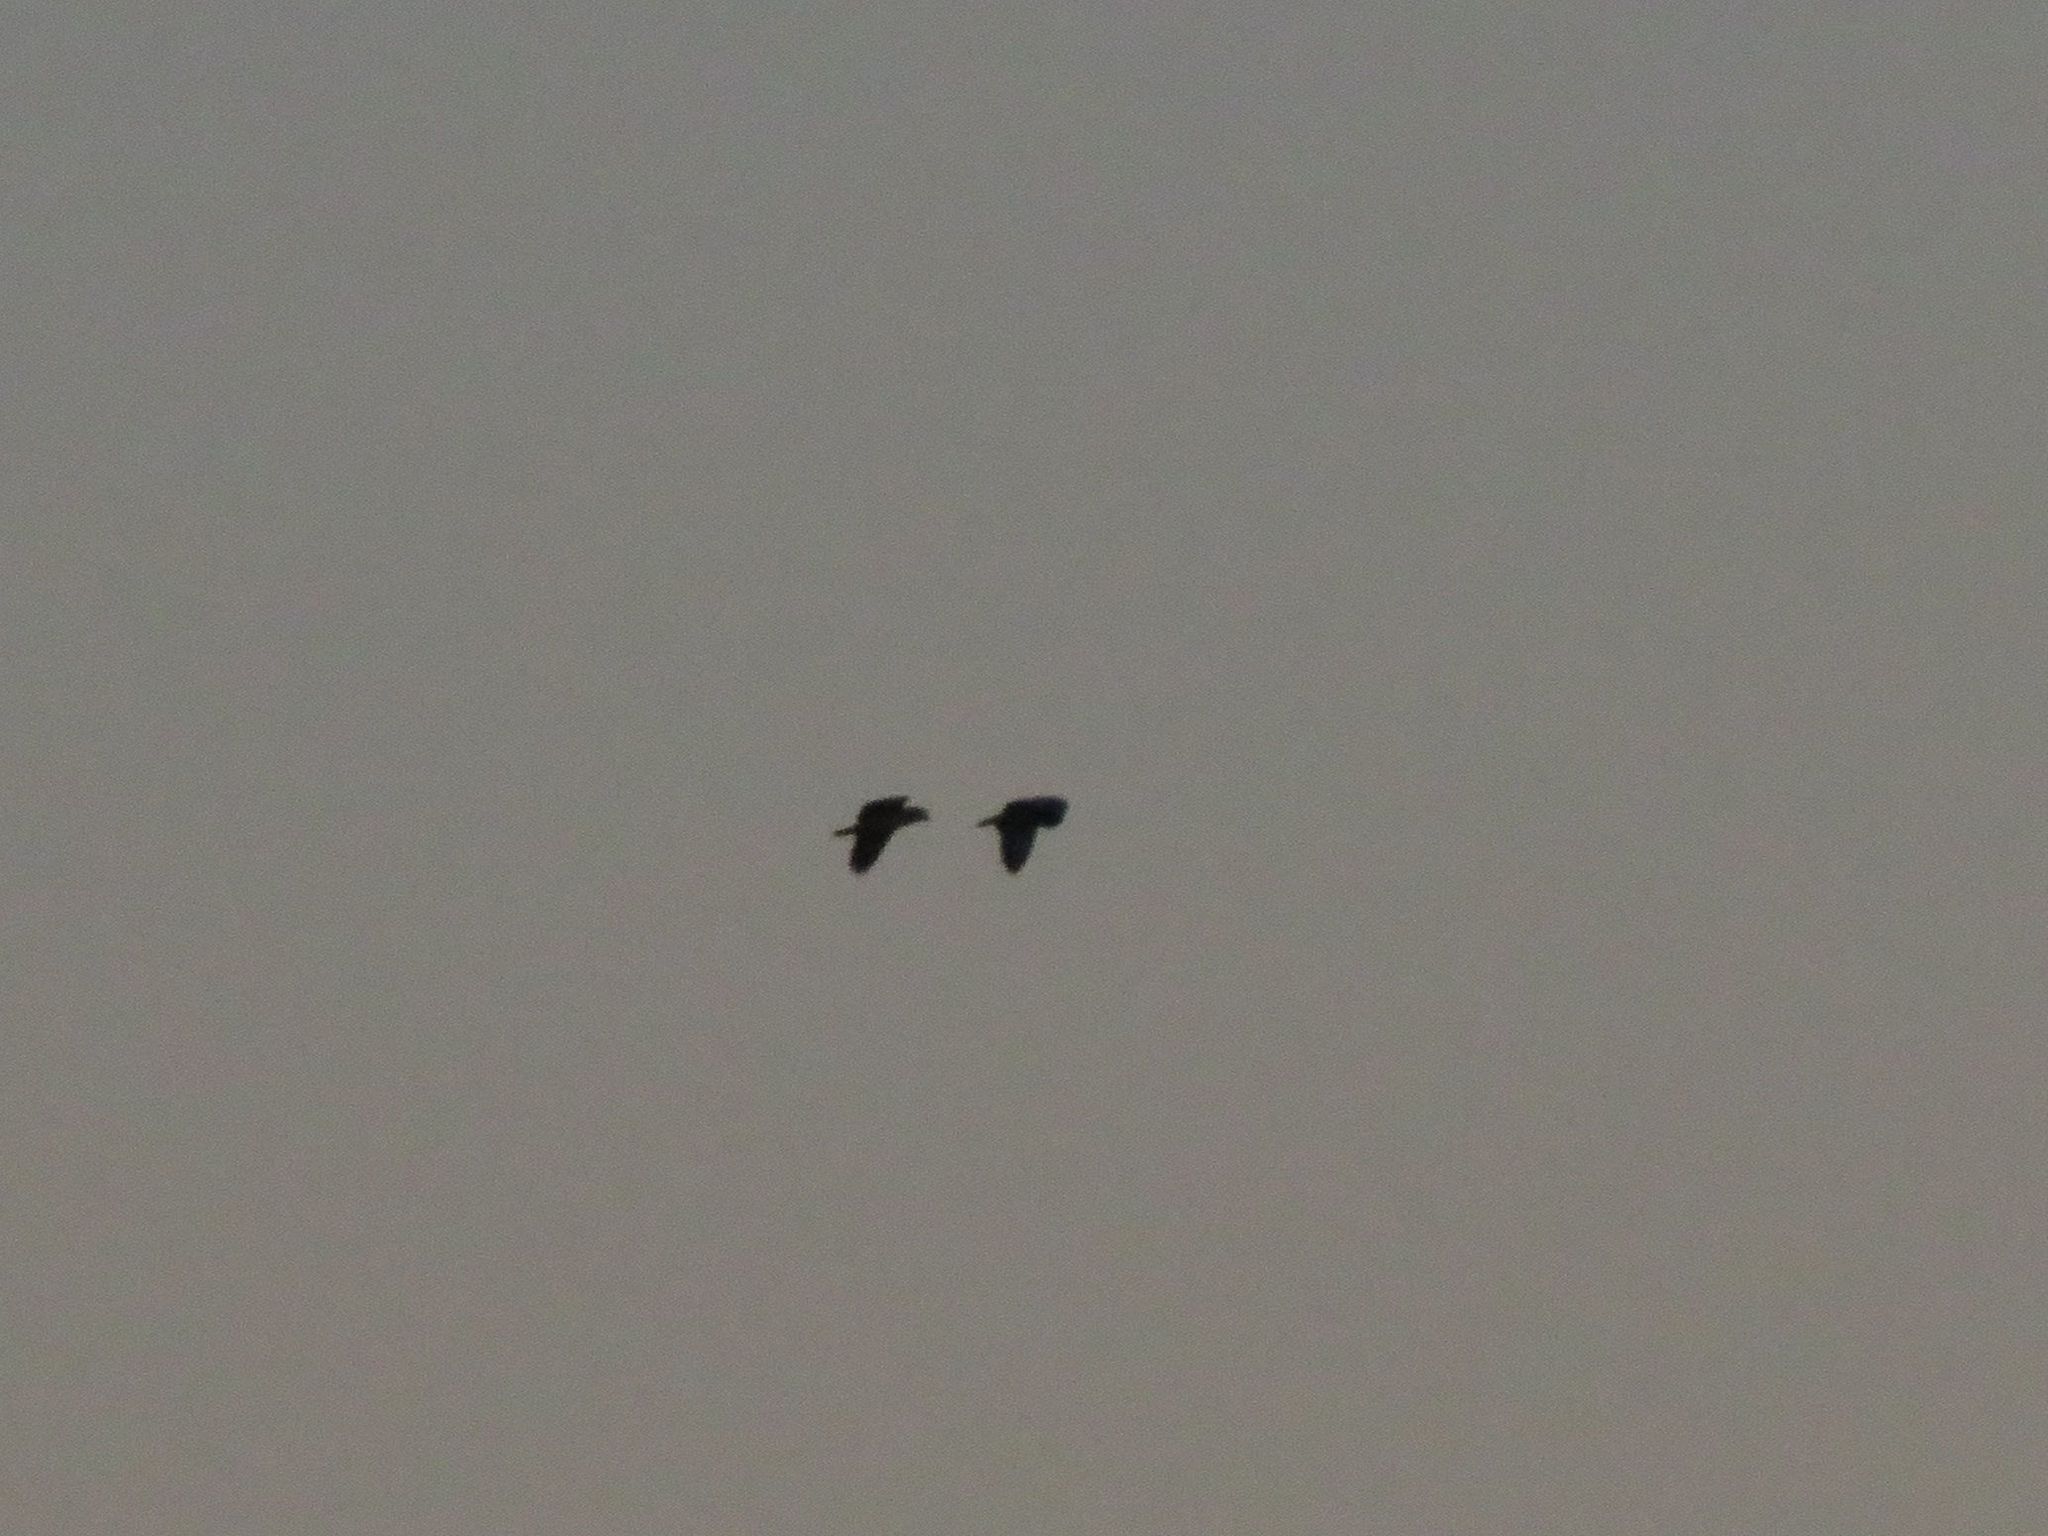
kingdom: Animalia
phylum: Chordata
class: Aves
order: Psittaciformes
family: Psittacidae
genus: Amazona
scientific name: Amazona aestiva
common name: Turquoise-fronted amazon
